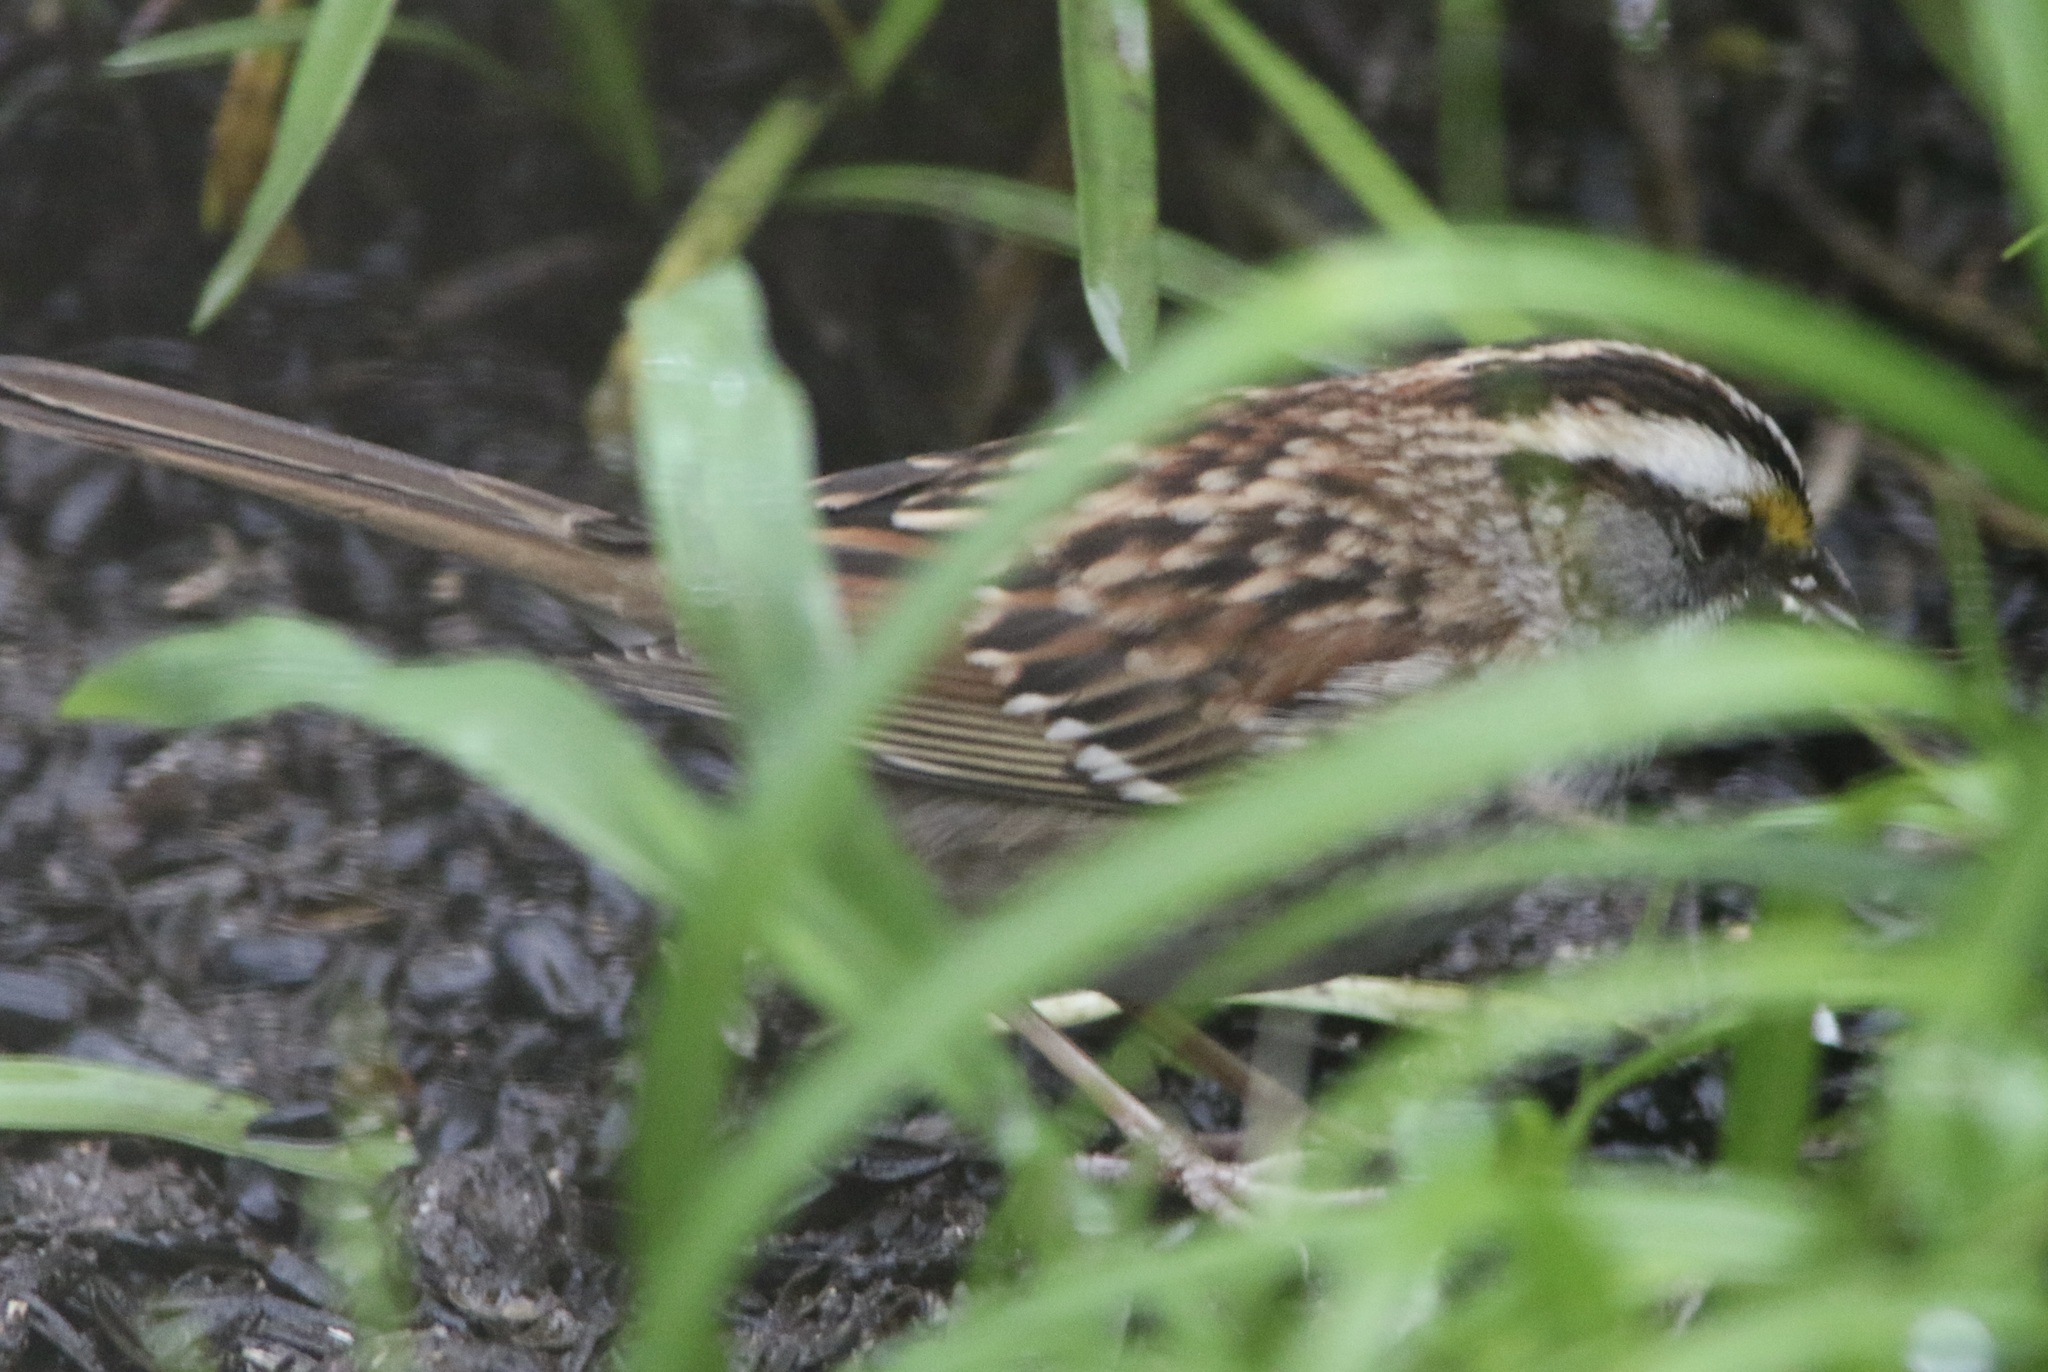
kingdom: Animalia
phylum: Chordata
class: Aves
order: Passeriformes
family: Passerellidae
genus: Zonotrichia
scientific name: Zonotrichia albicollis
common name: White-throated sparrow
